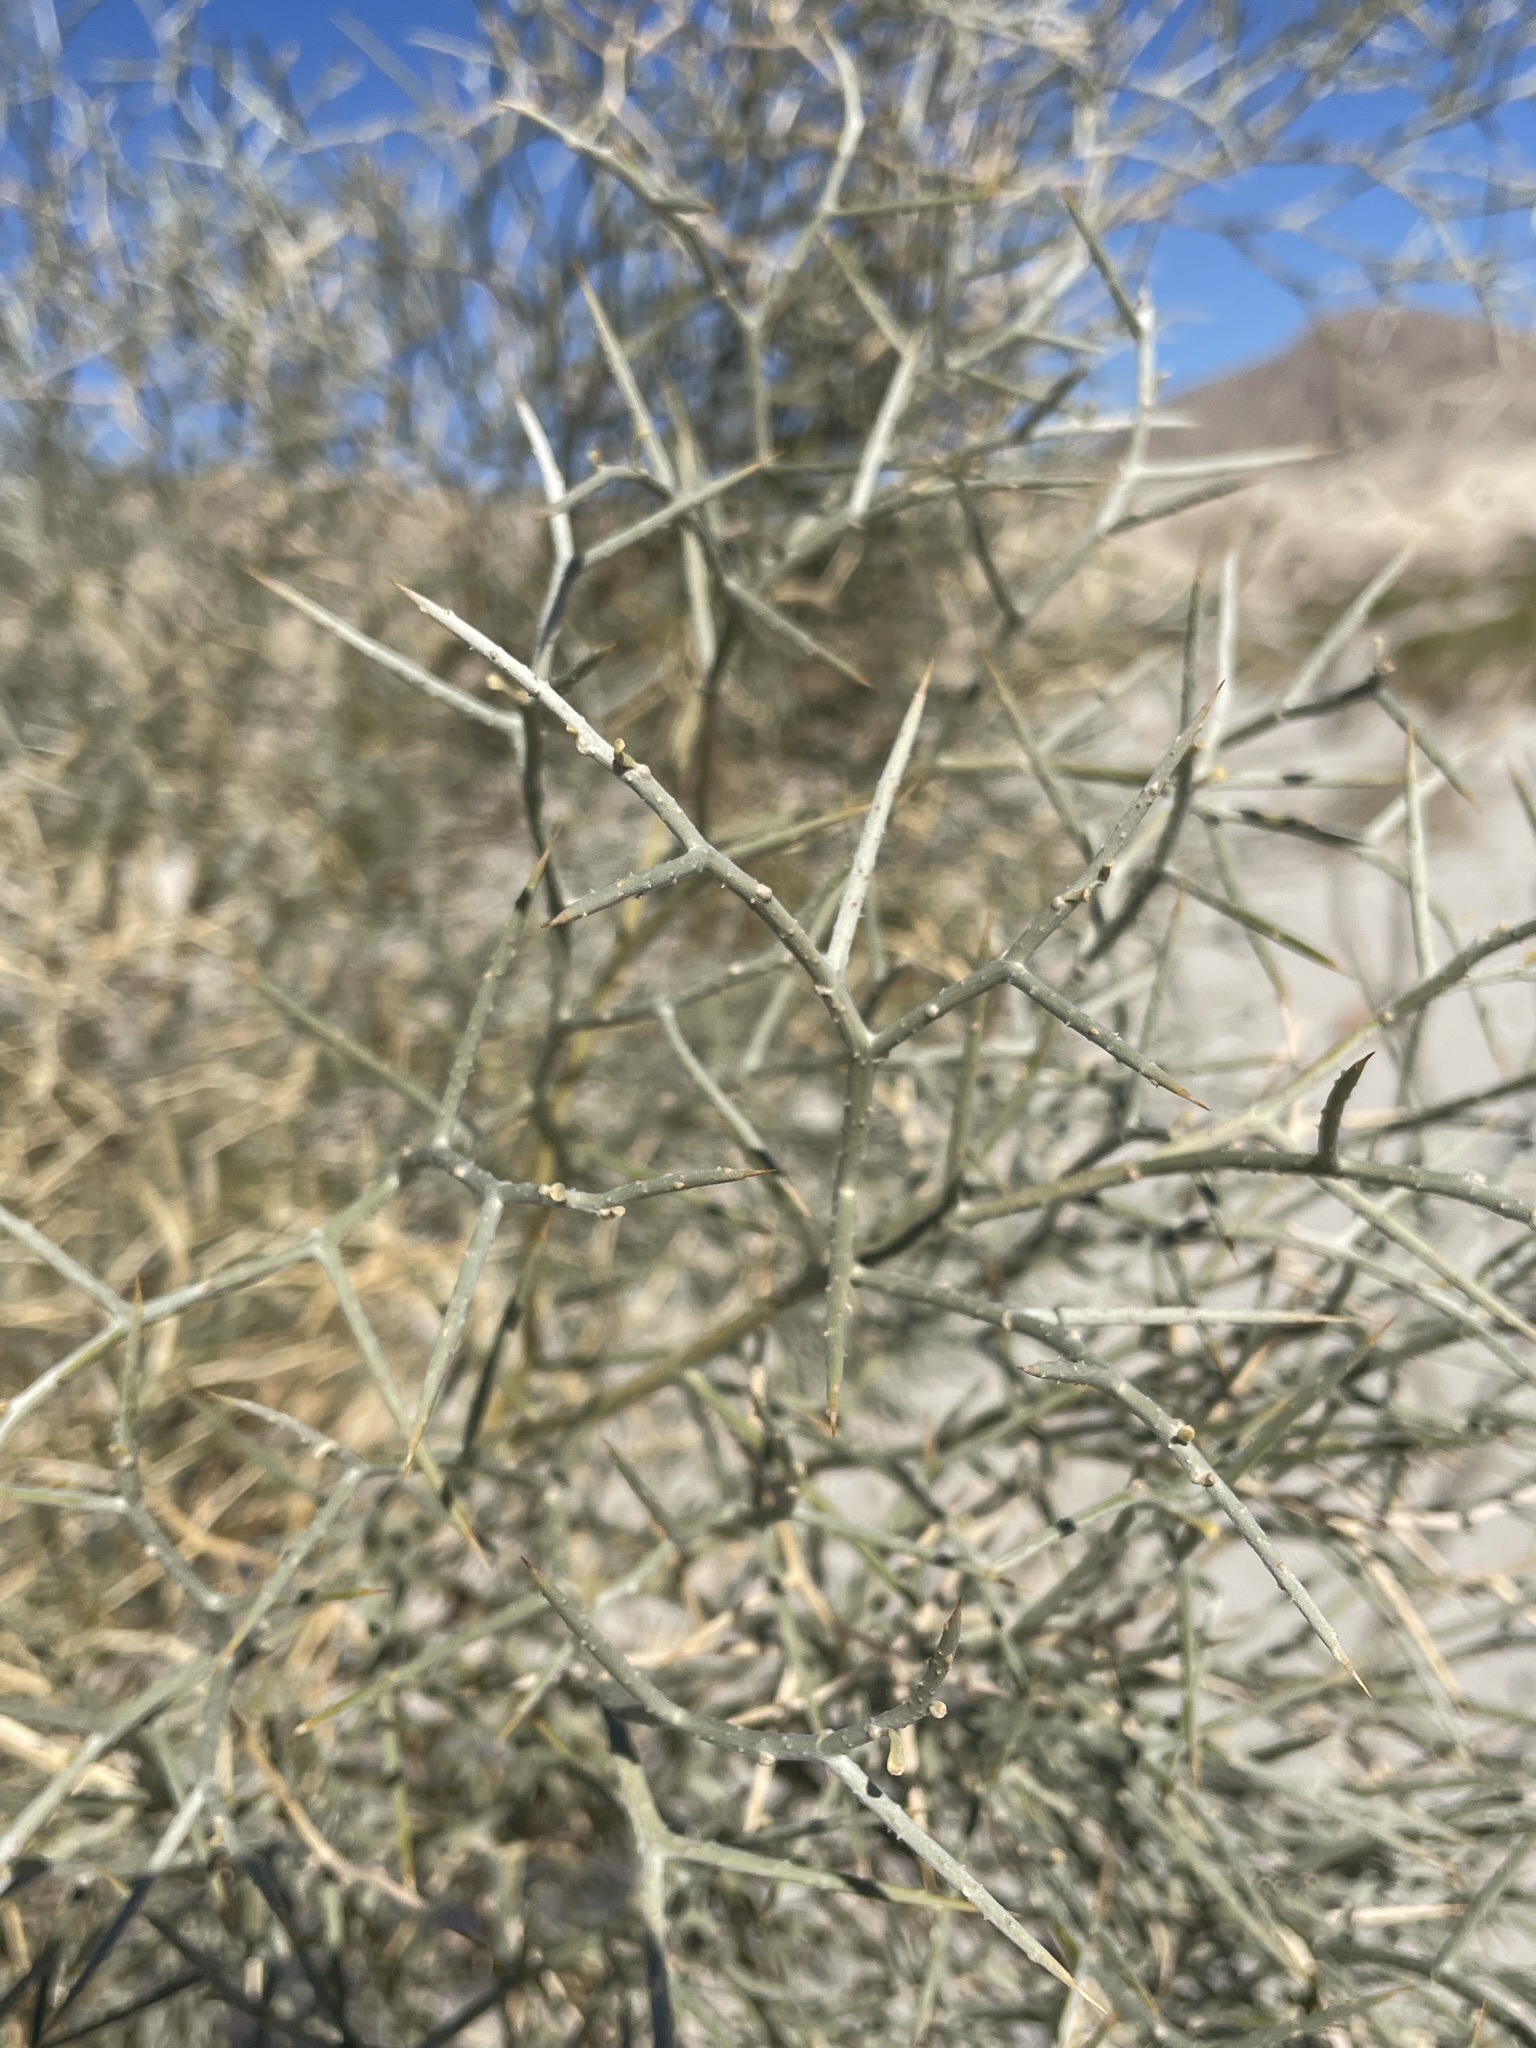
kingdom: Plantae
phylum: Tracheophyta
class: Magnoliopsida
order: Fabales
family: Fabaceae
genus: Psorothamnus
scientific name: Psorothamnus spinosus
